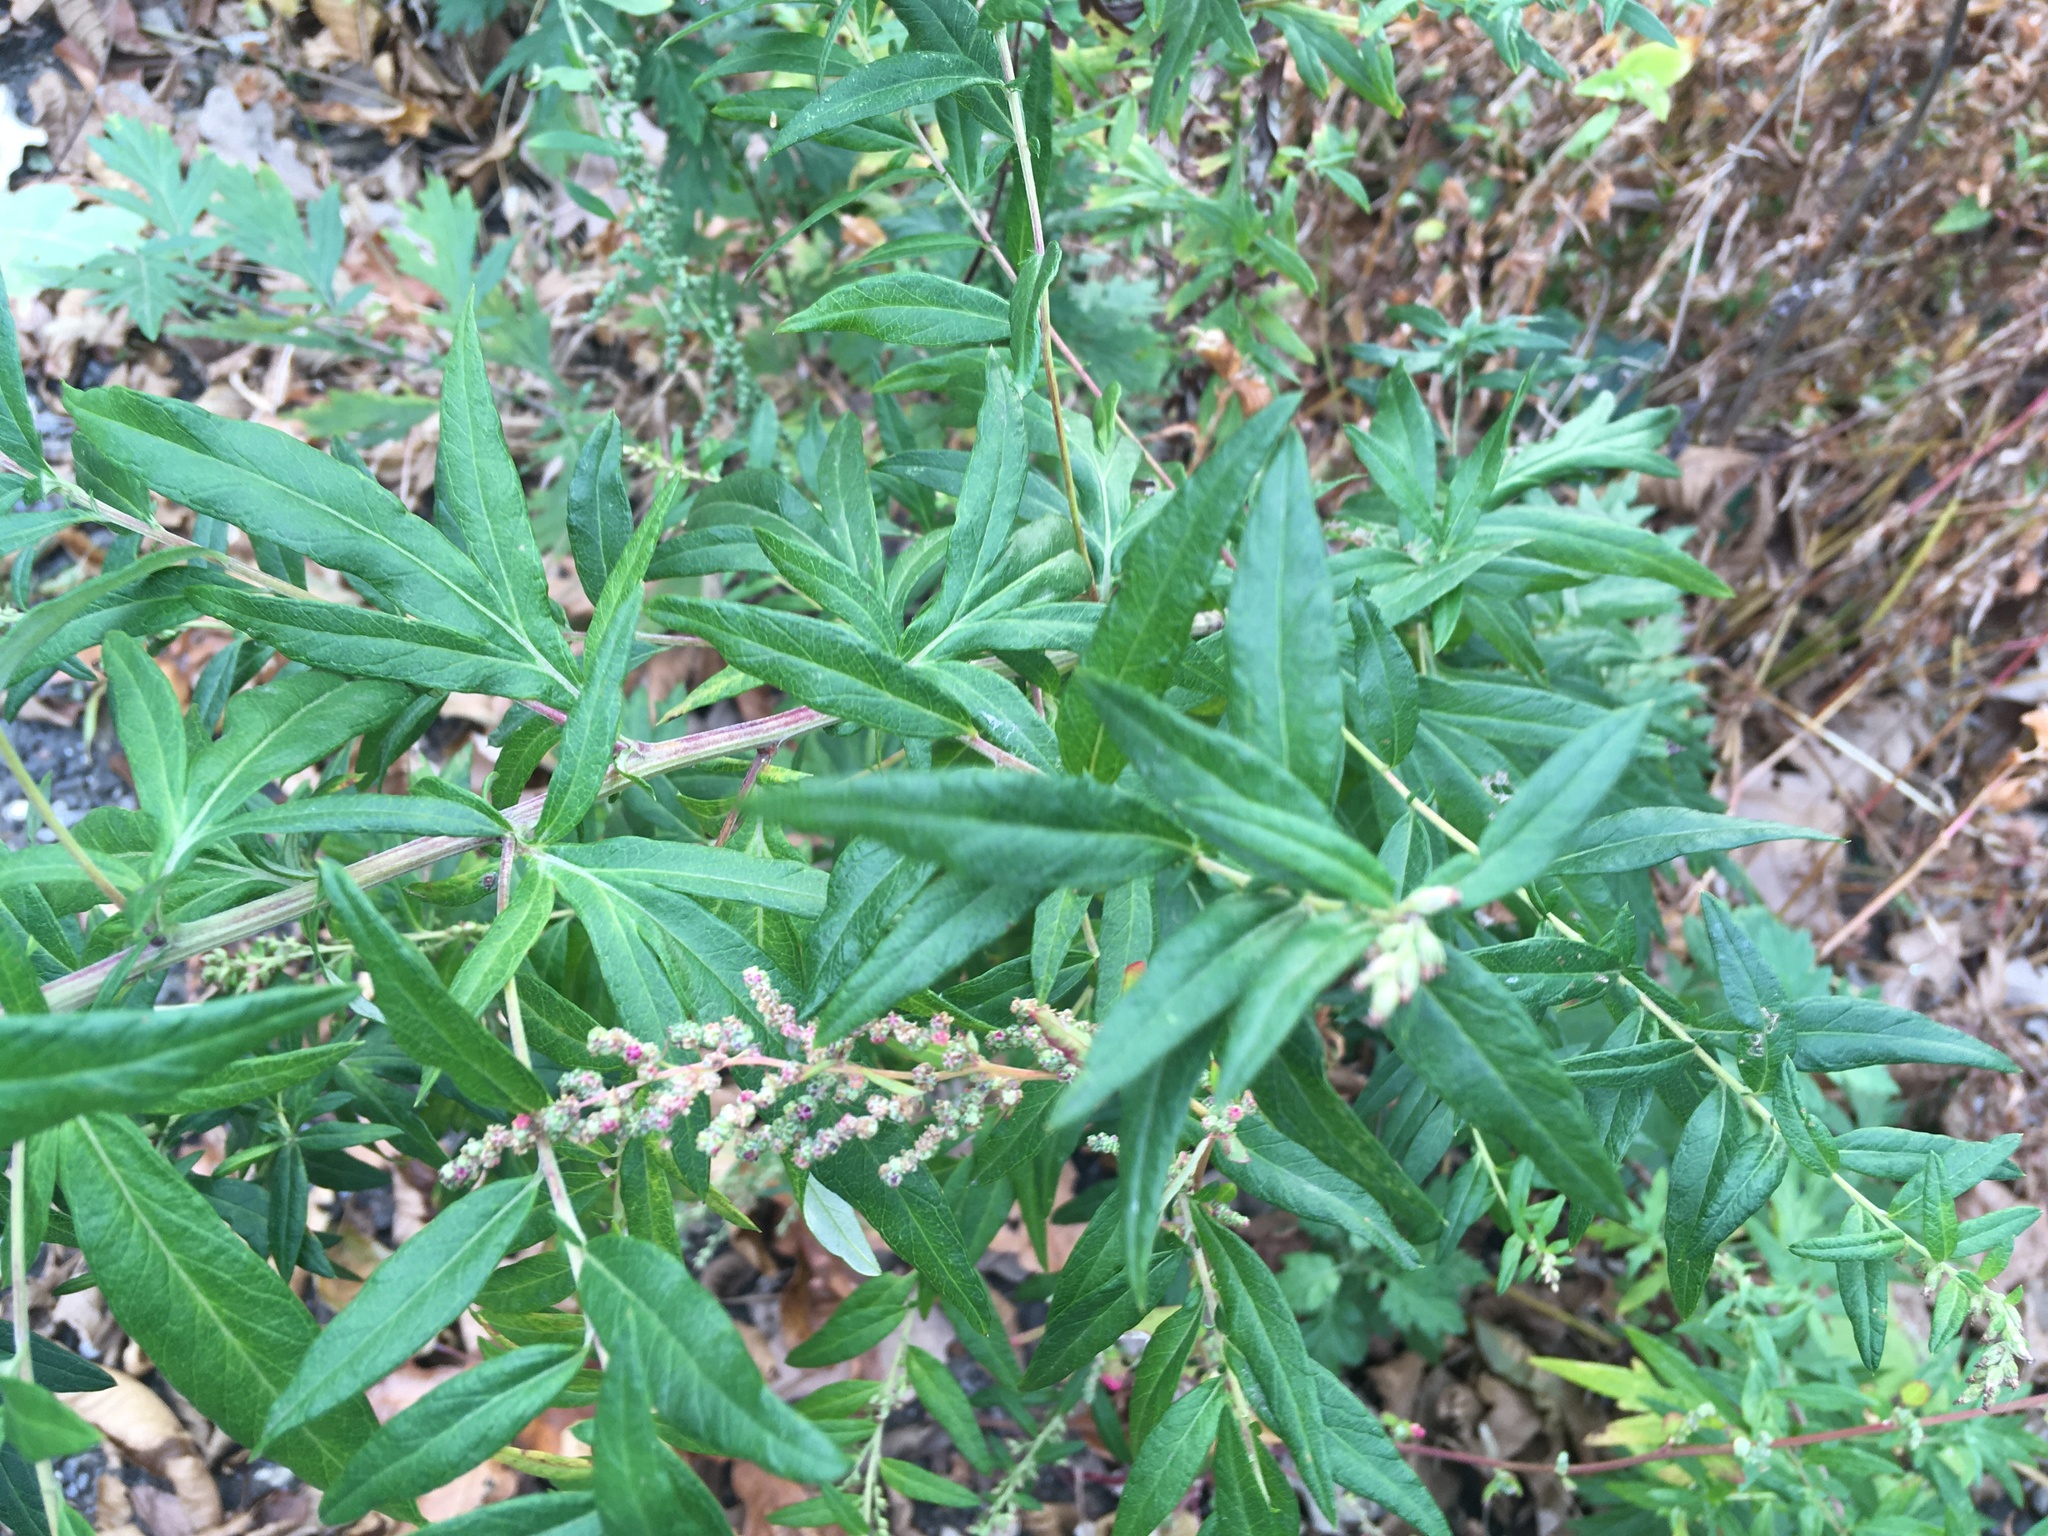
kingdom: Plantae
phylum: Tracheophyta
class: Magnoliopsida
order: Asterales
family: Asteraceae
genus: Artemisia
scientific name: Artemisia vulgaris
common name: Mugwort
